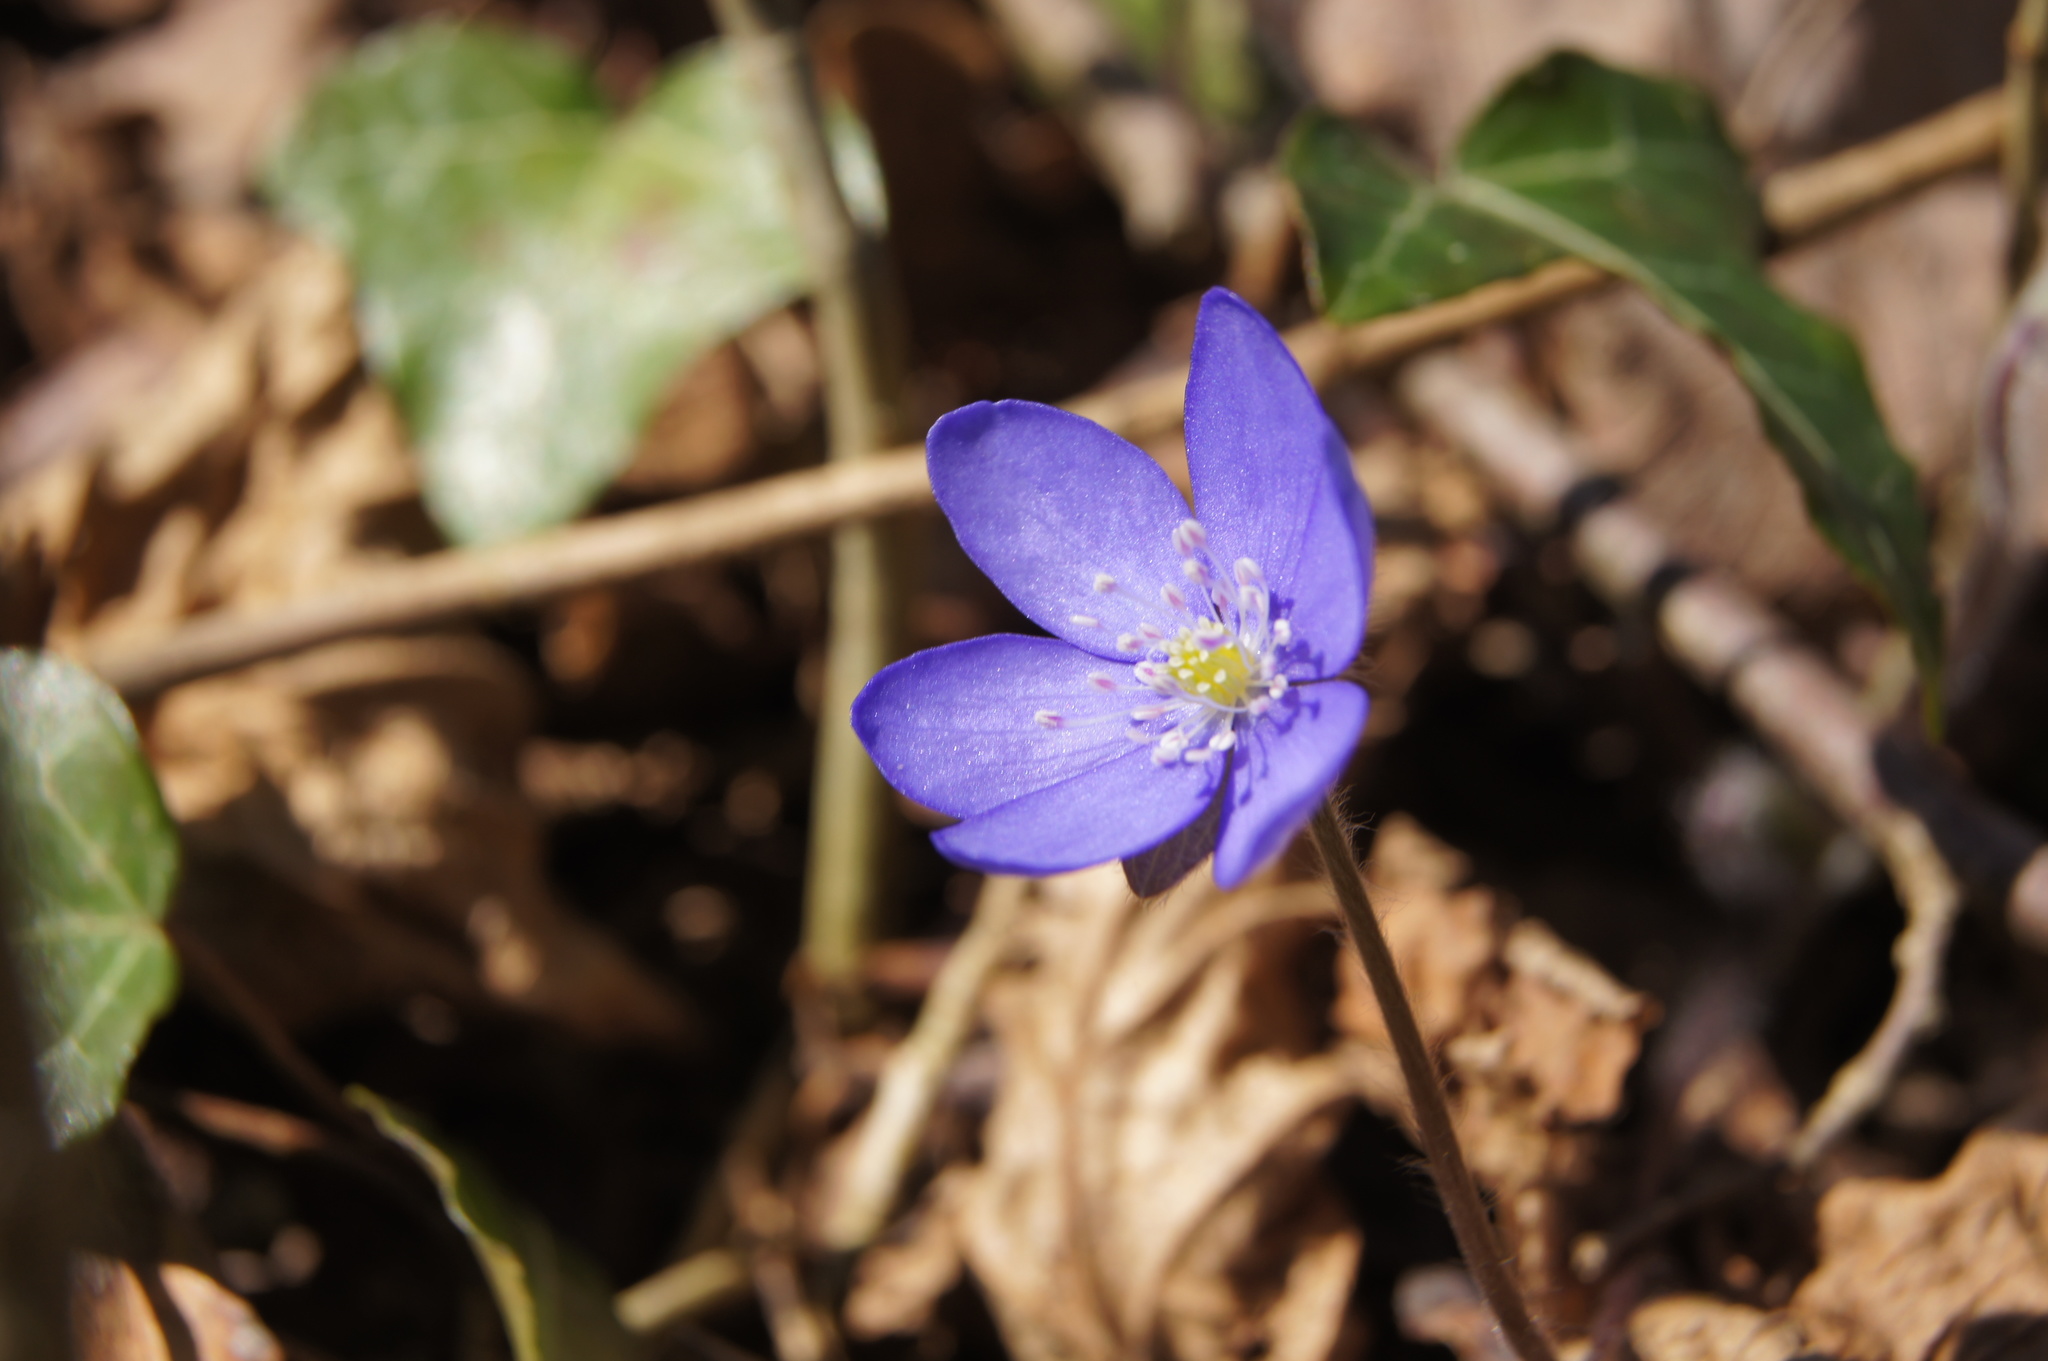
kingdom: Plantae
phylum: Tracheophyta
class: Magnoliopsida
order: Ranunculales
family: Ranunculaceae
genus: Hepatica
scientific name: Hepatica nobilis
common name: Liverleaf
